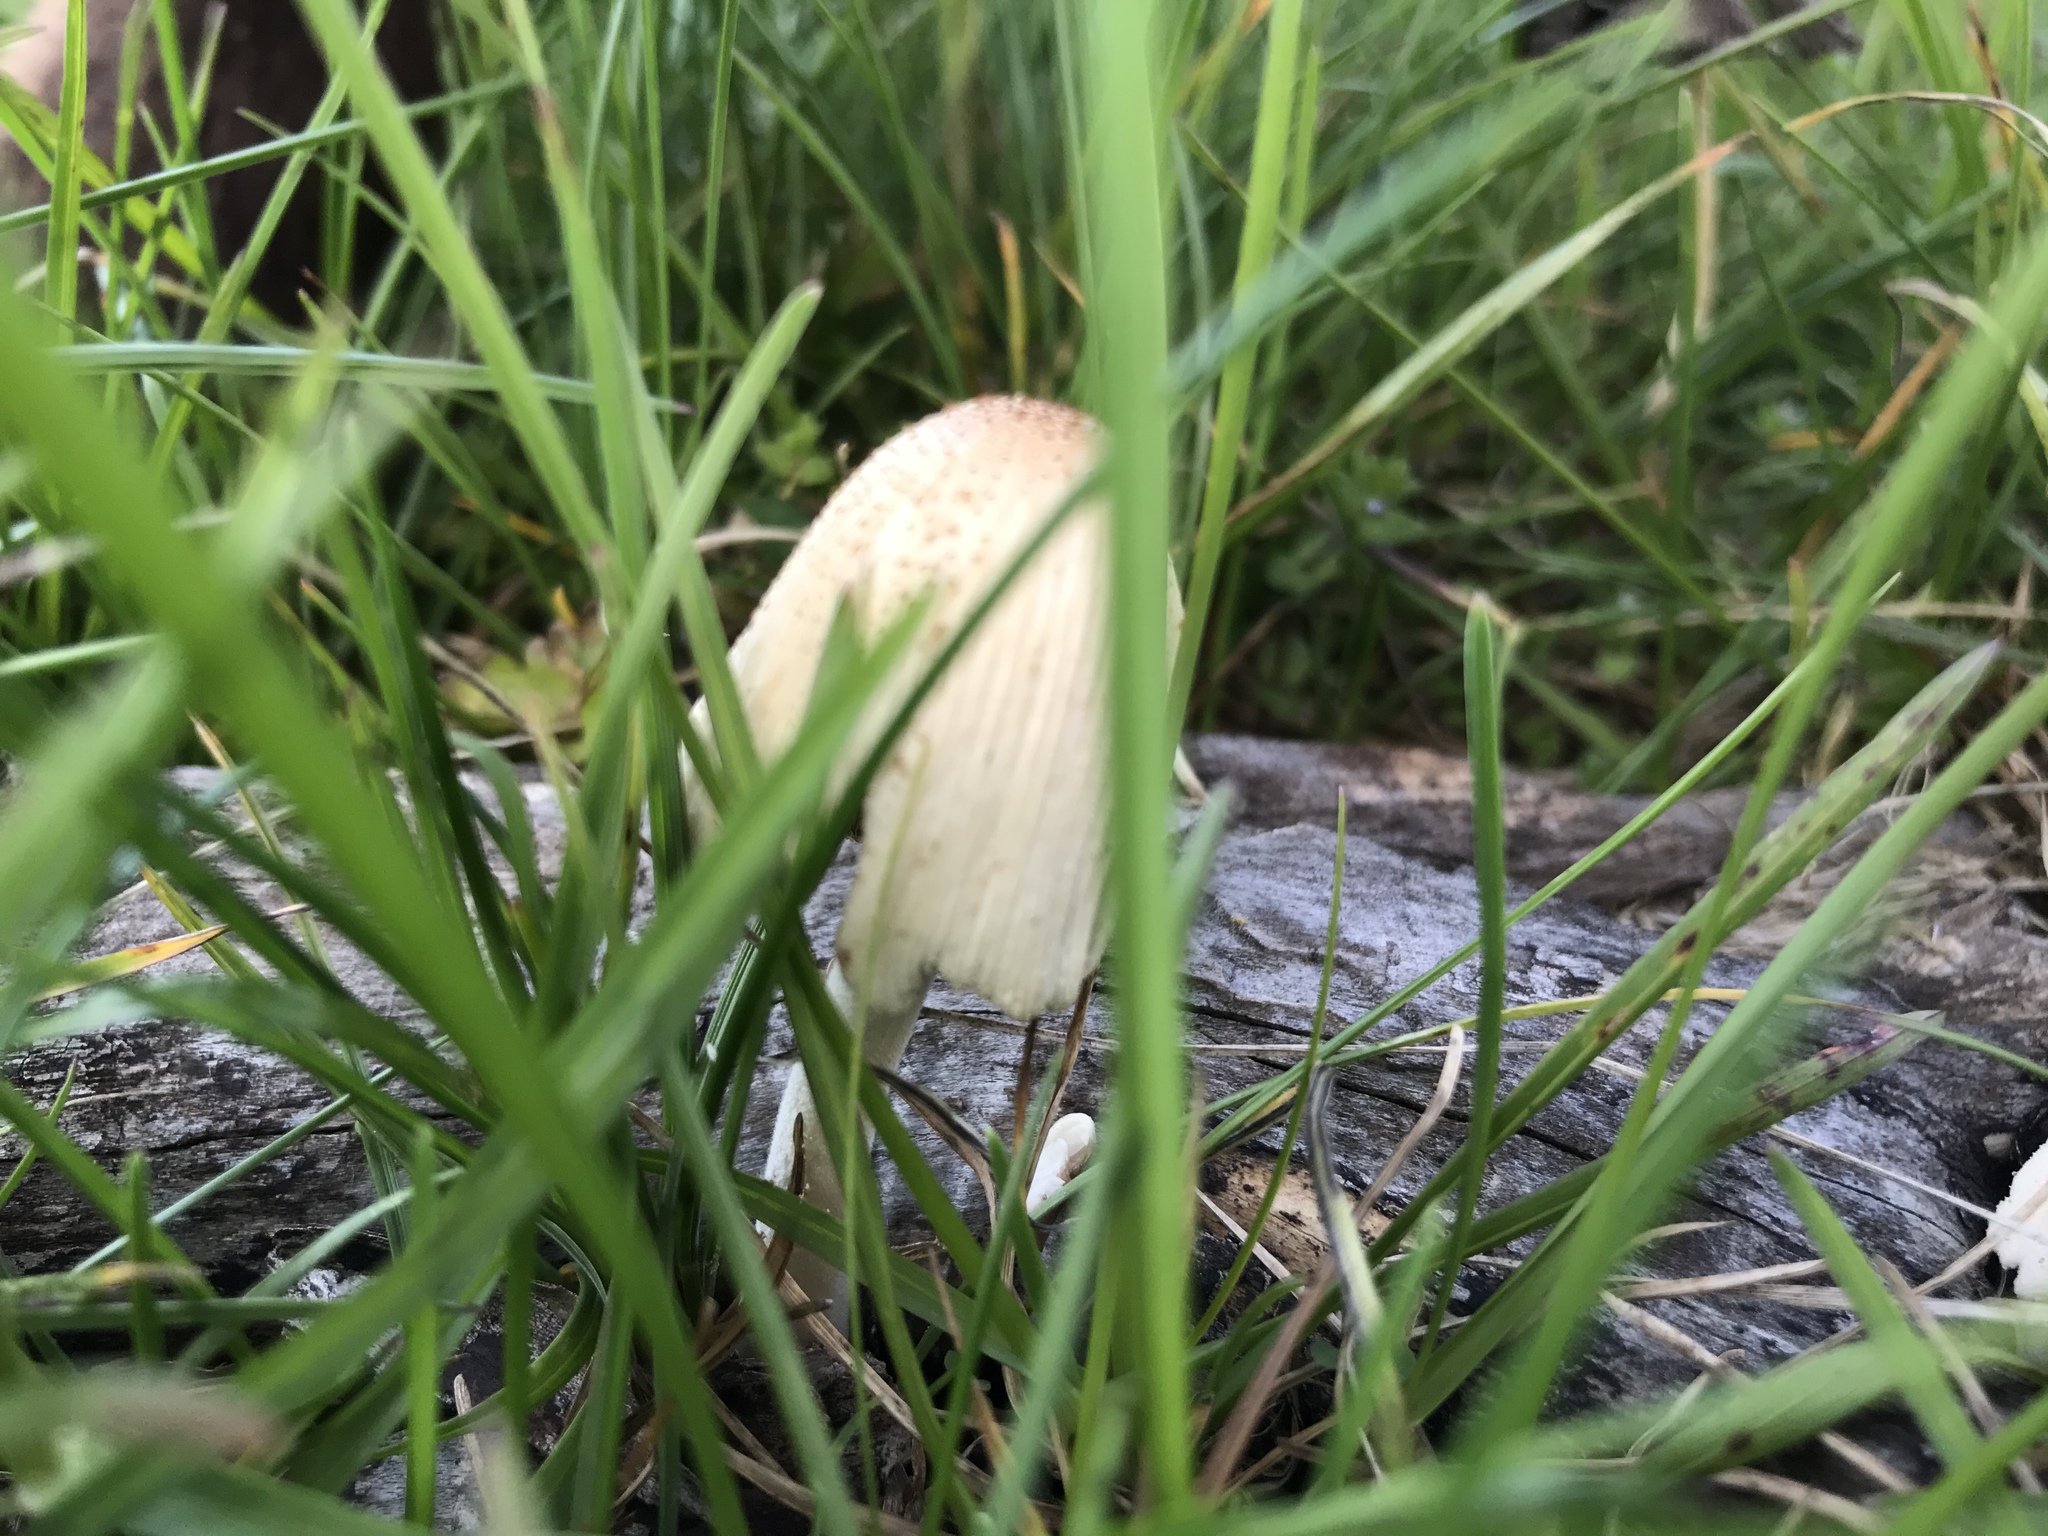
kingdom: Fungi
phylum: Basidiomycota
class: Agaricomycetes
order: Agaricales
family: Psathyrellaceae
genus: Coprinellus
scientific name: Coprinellus micaceus
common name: Glistening ink-cap
